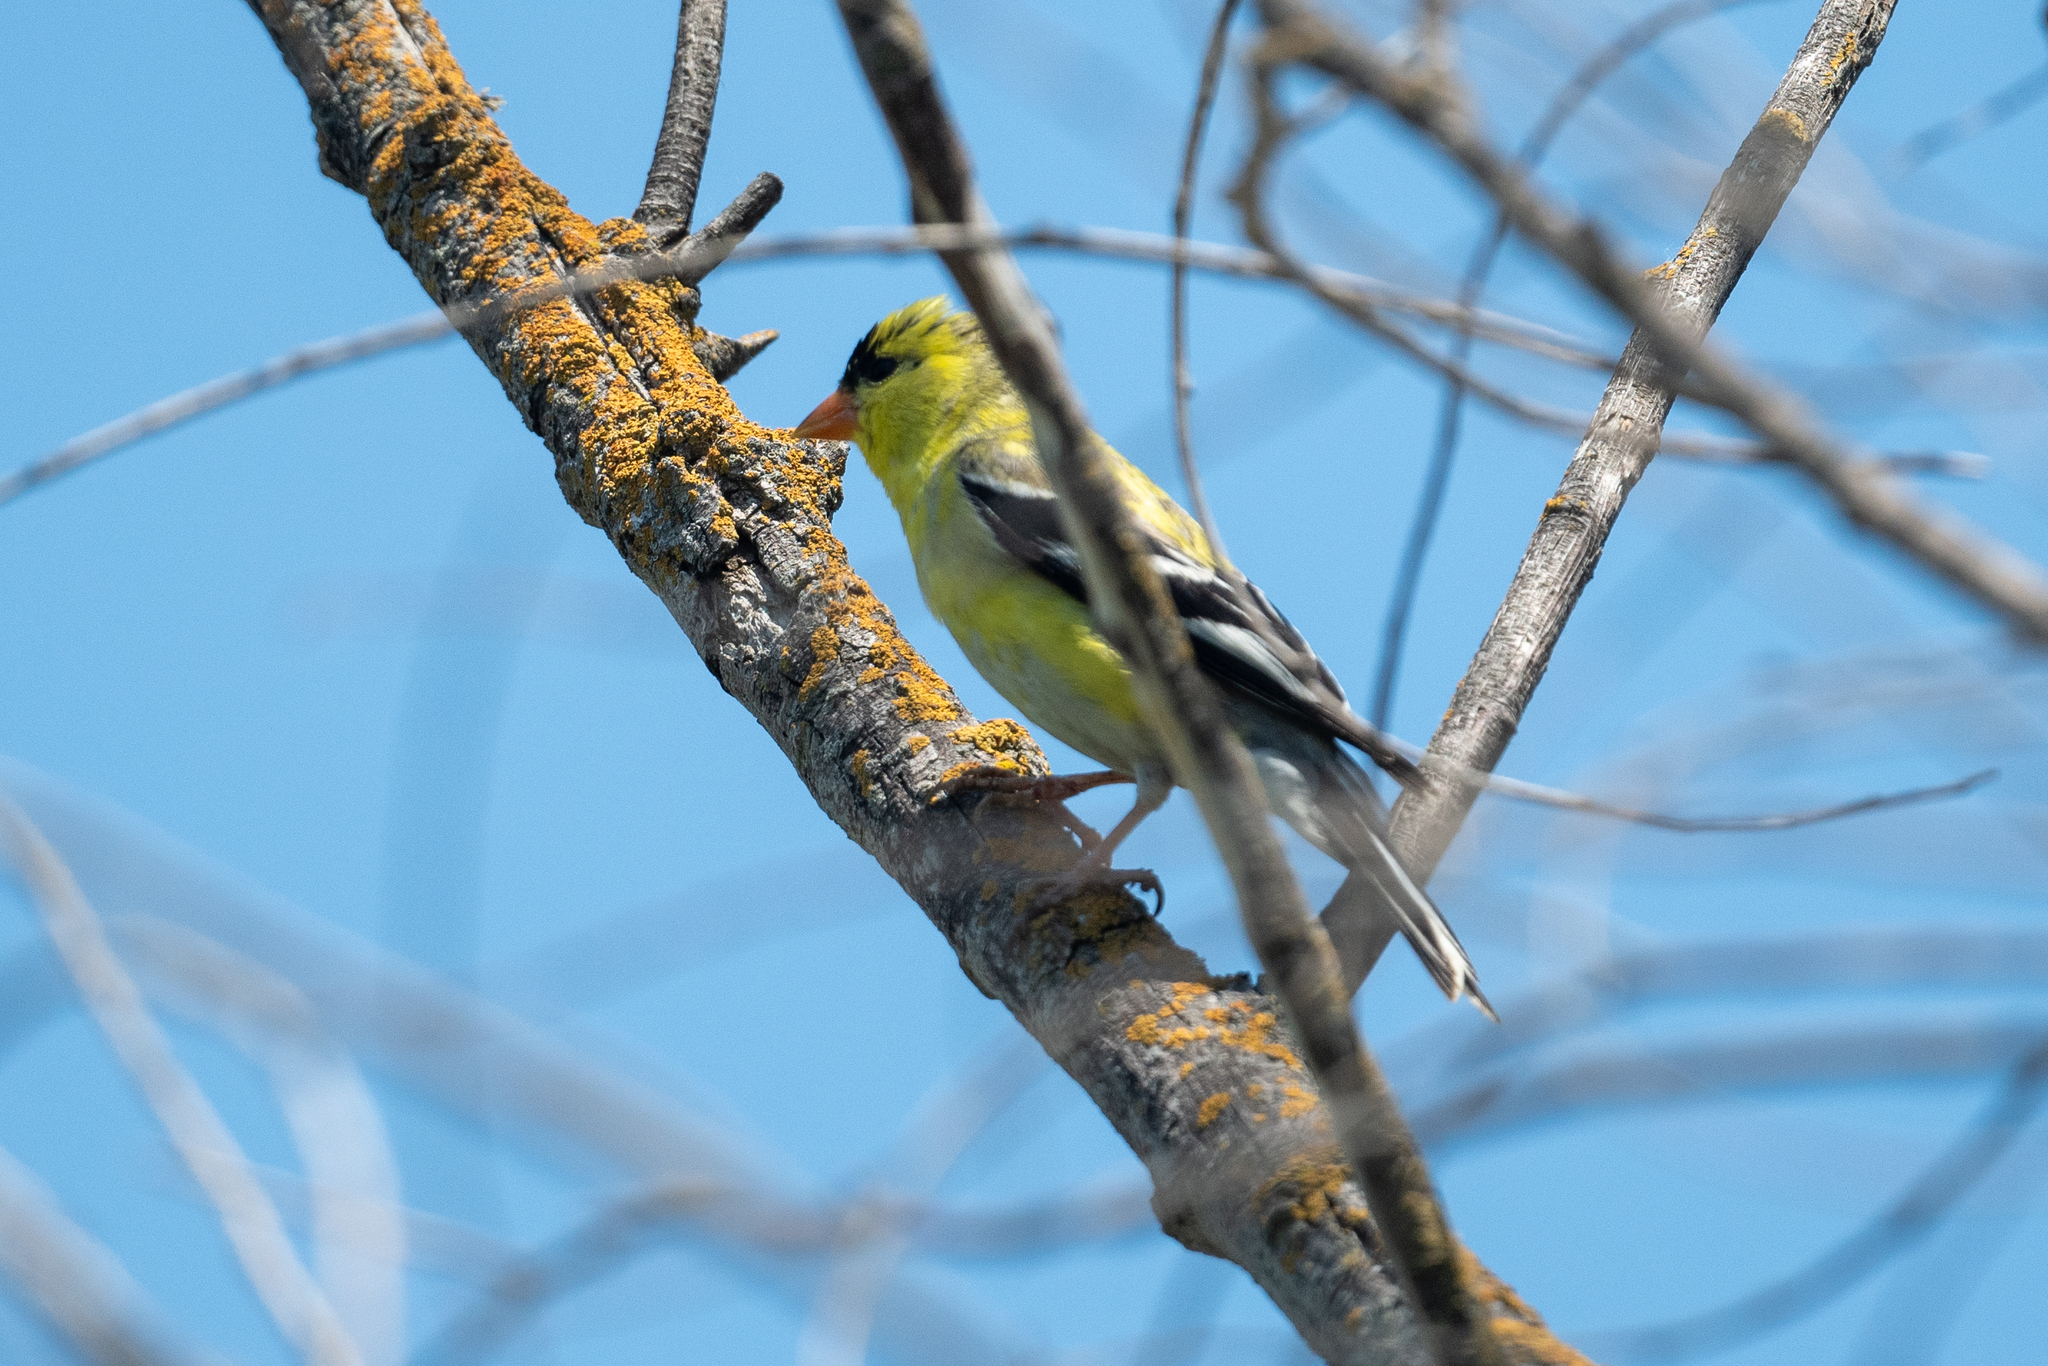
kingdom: Animalia
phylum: Chordata
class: Aves
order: Passeriformes
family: Fringillidae
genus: Spinus
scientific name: Spinus tristis
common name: American goldfinch
